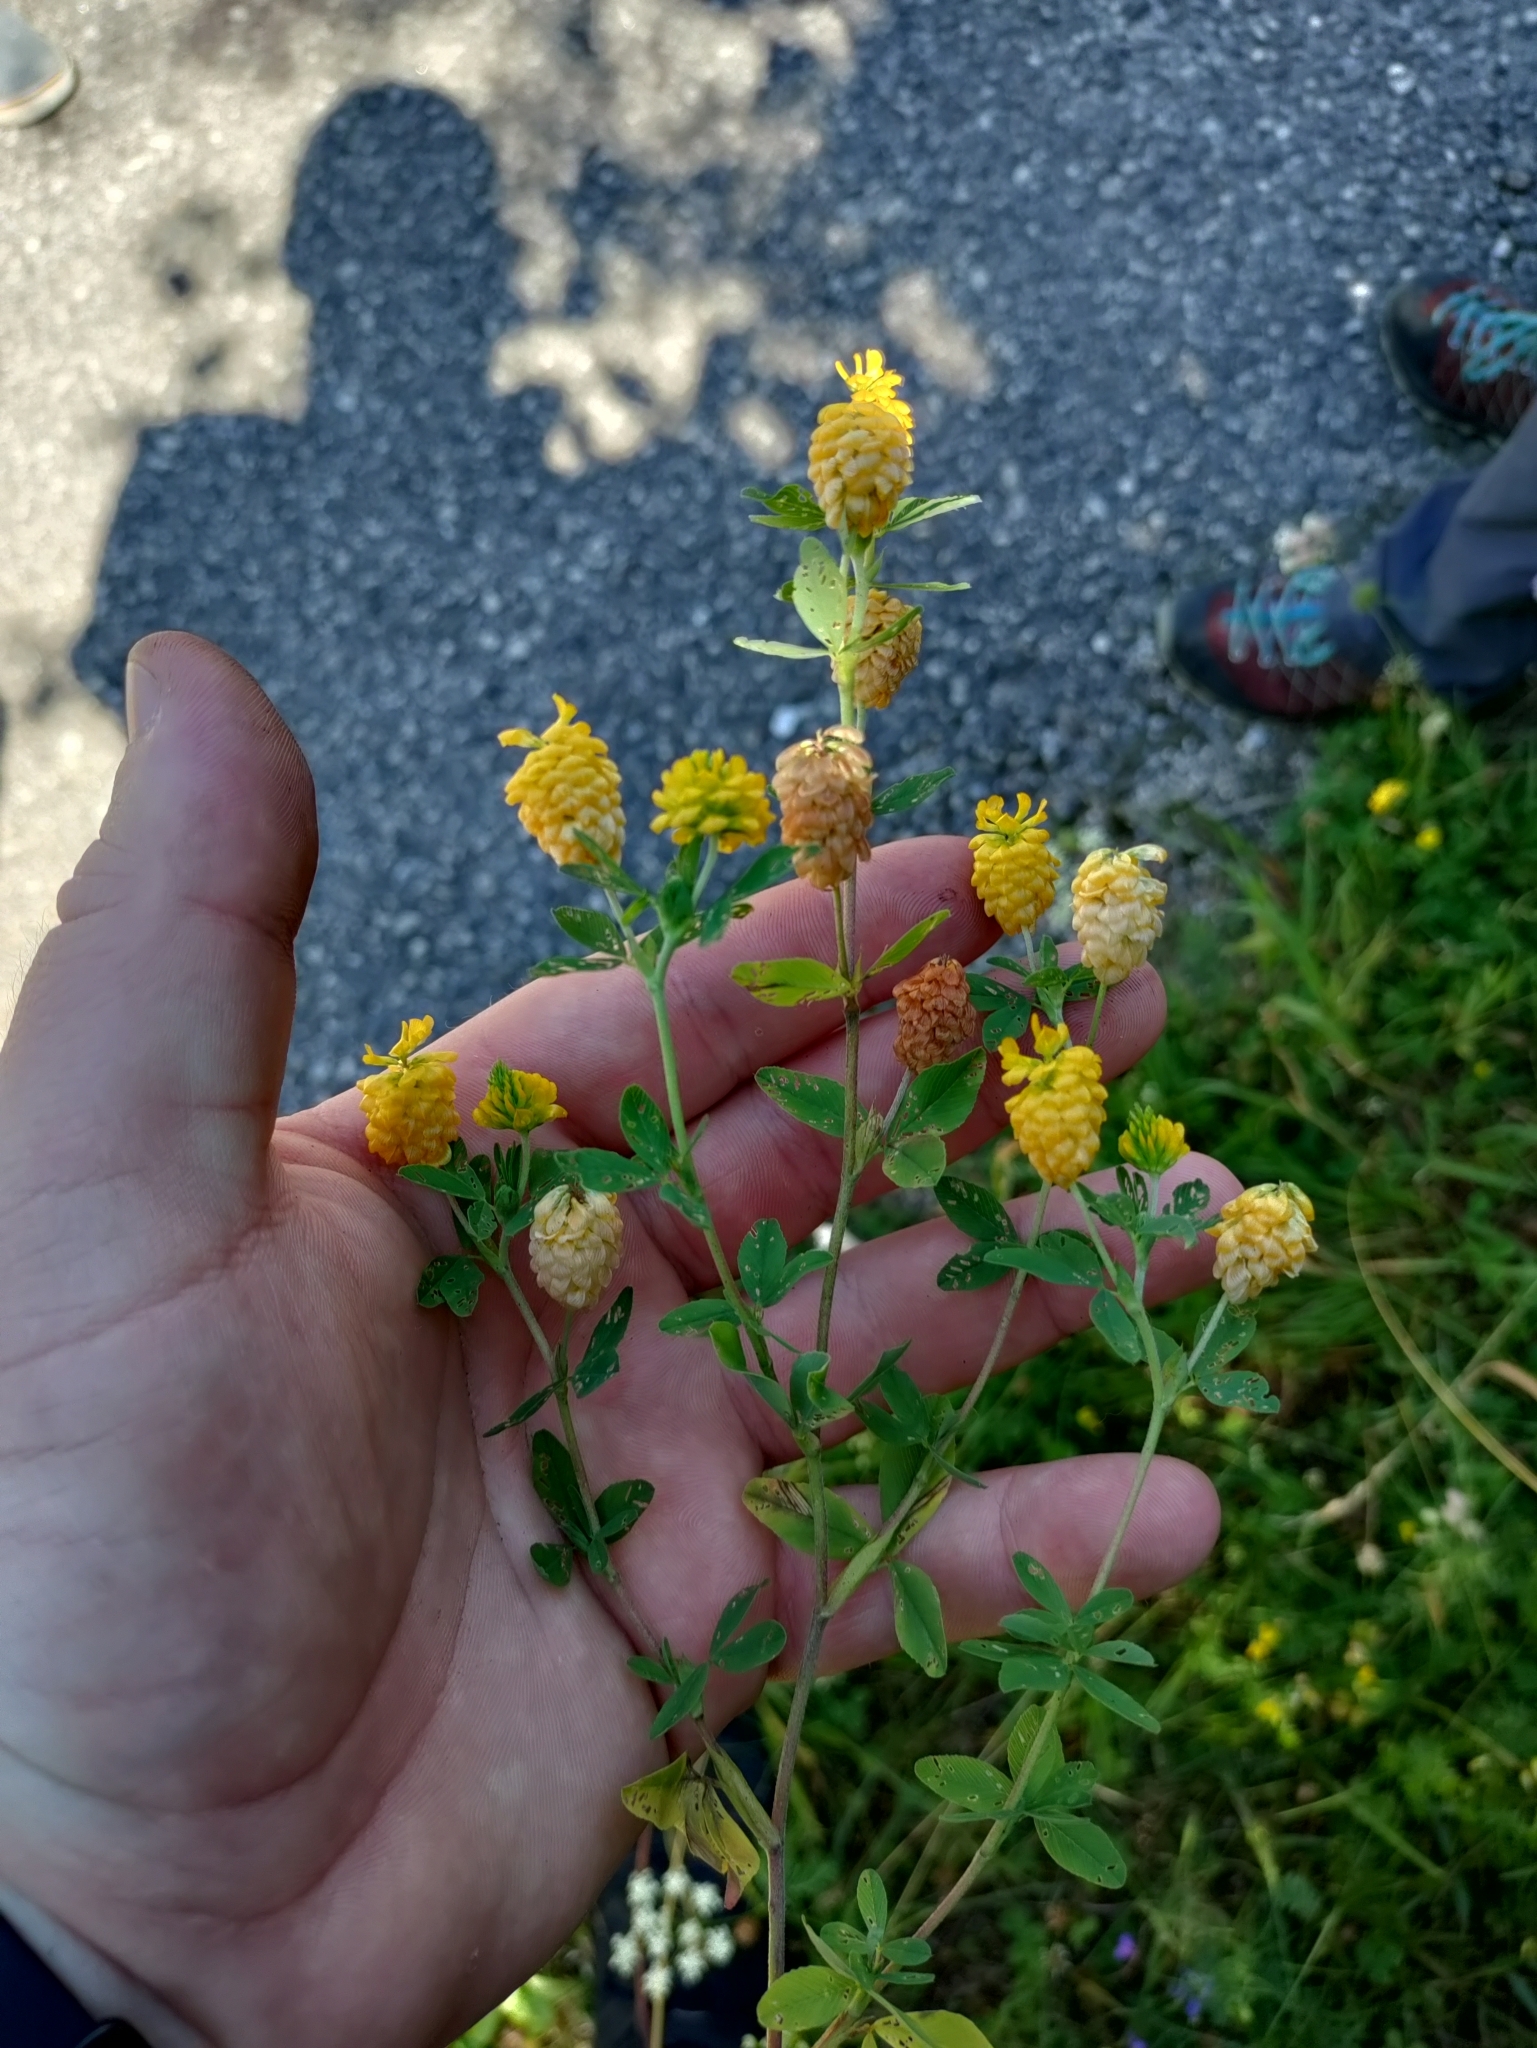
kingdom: Plantae
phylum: Tracheophyta
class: Magnoliopsida
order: Fabales
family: Fabaceae
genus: Trifolium
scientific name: Trifolium aureum
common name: Golden clover
